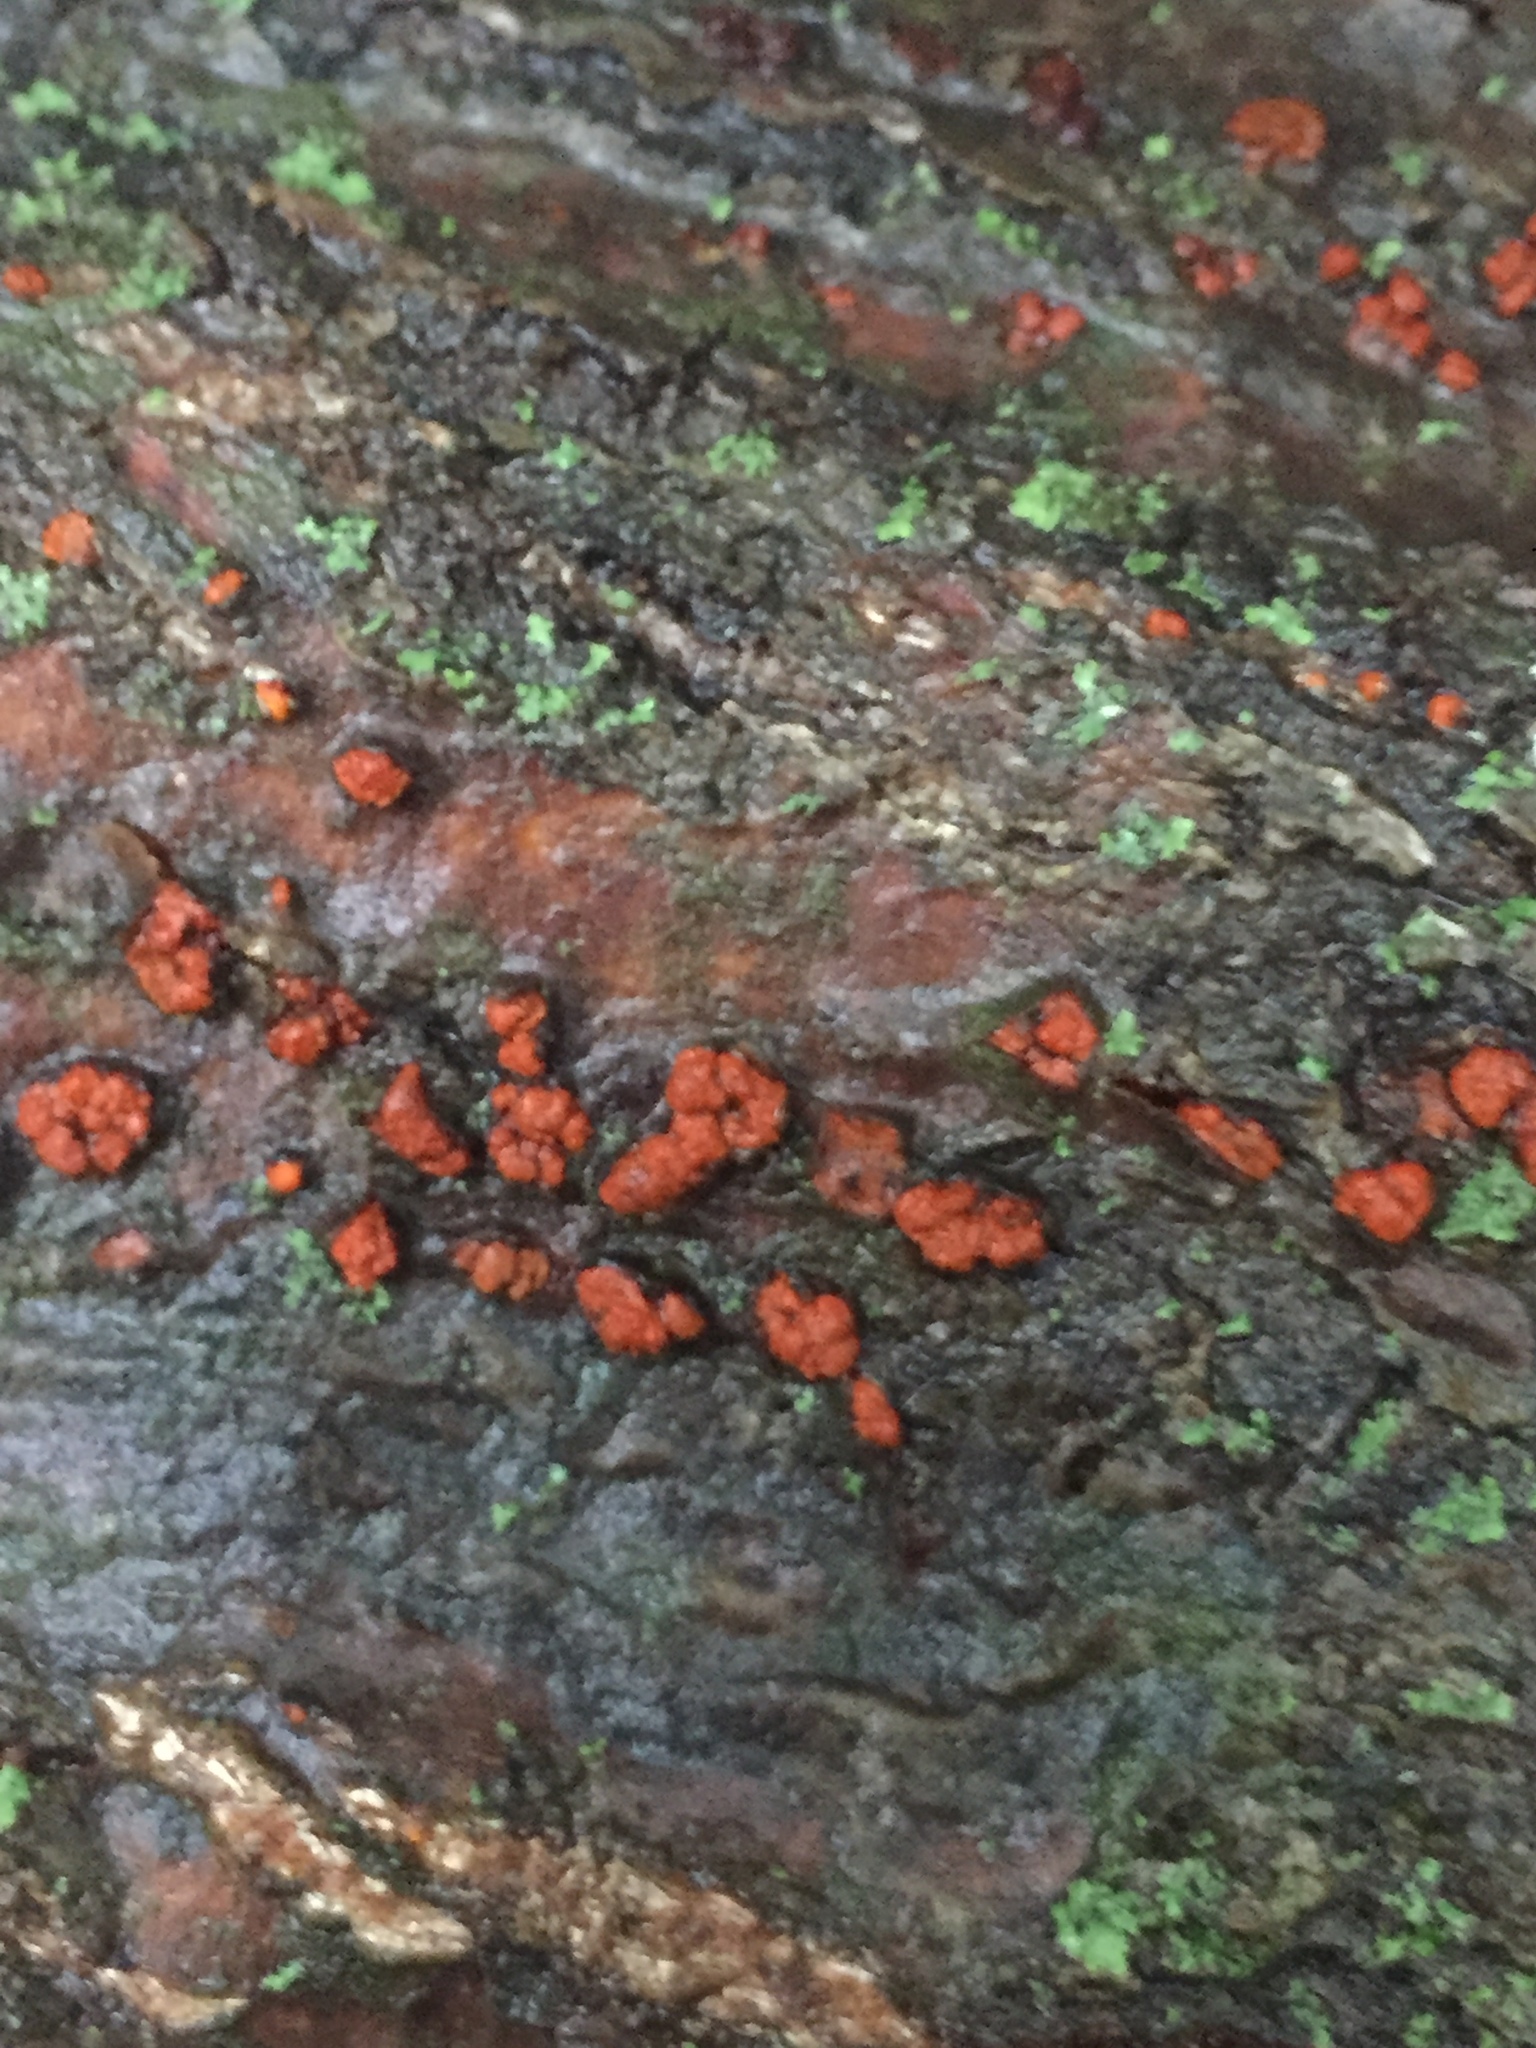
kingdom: Fungi
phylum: Ascomycota
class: Sordariomycetes
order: Diaporthales
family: Cryphonectriaceae
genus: Amphilogia
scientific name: Amphilogia gyrosa
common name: Orange hobnail canker
